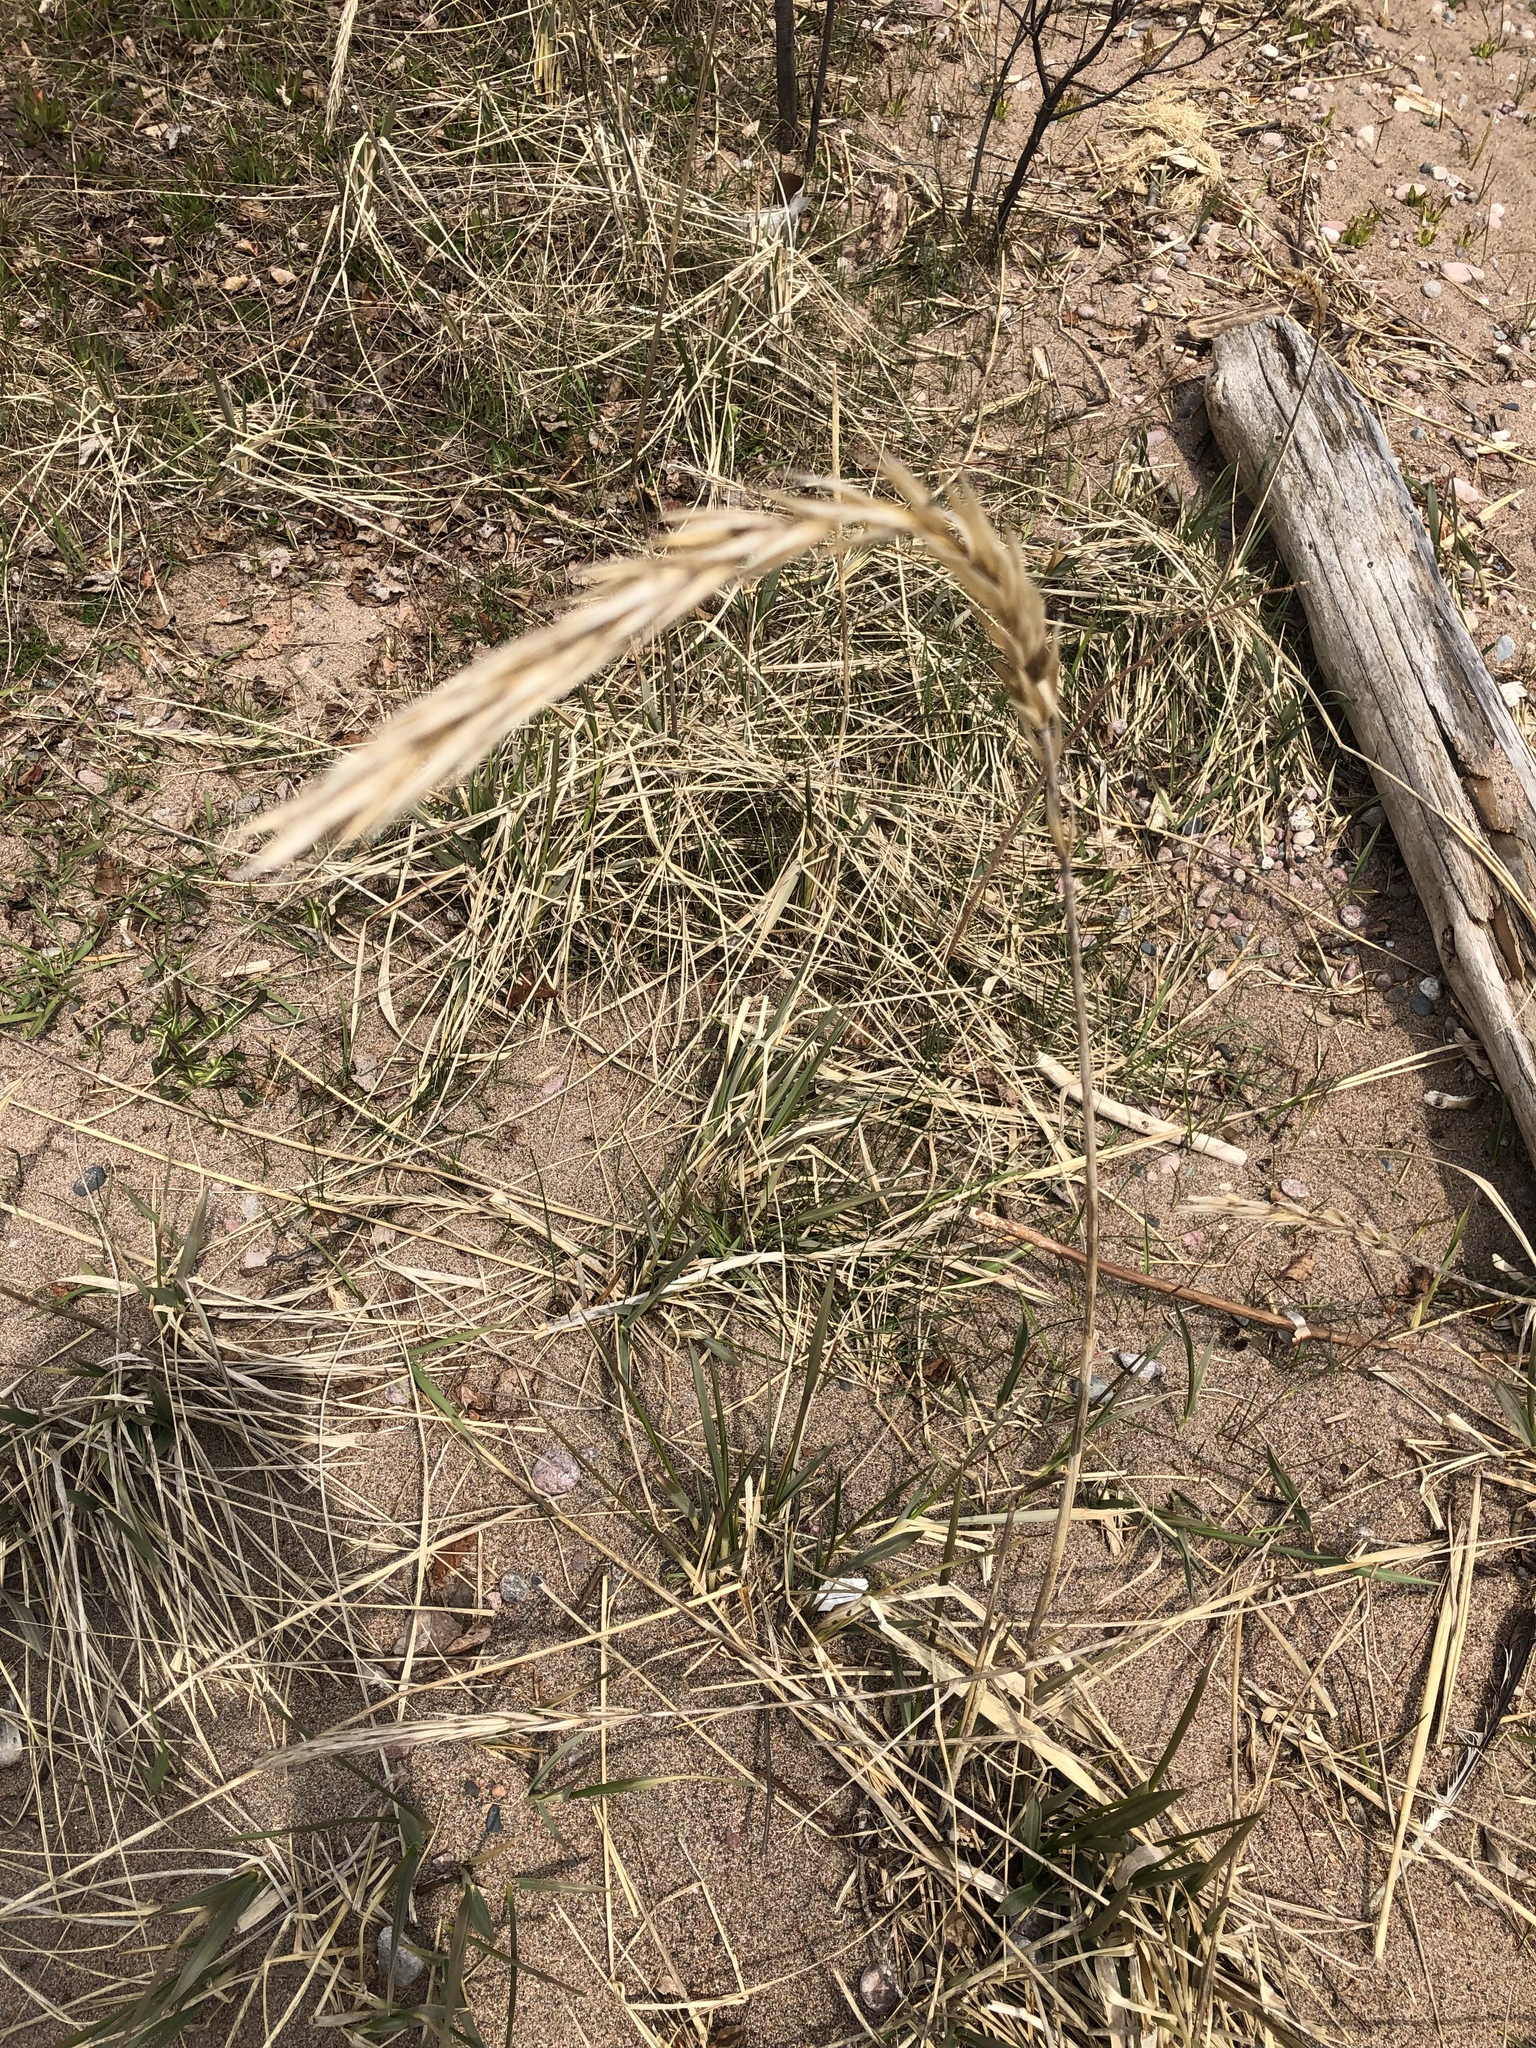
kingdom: Plantae
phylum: Tracheophyta
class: Liliopsida
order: Poales
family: Poaceae
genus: Leymus
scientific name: Leymus mollis
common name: American dune grass
